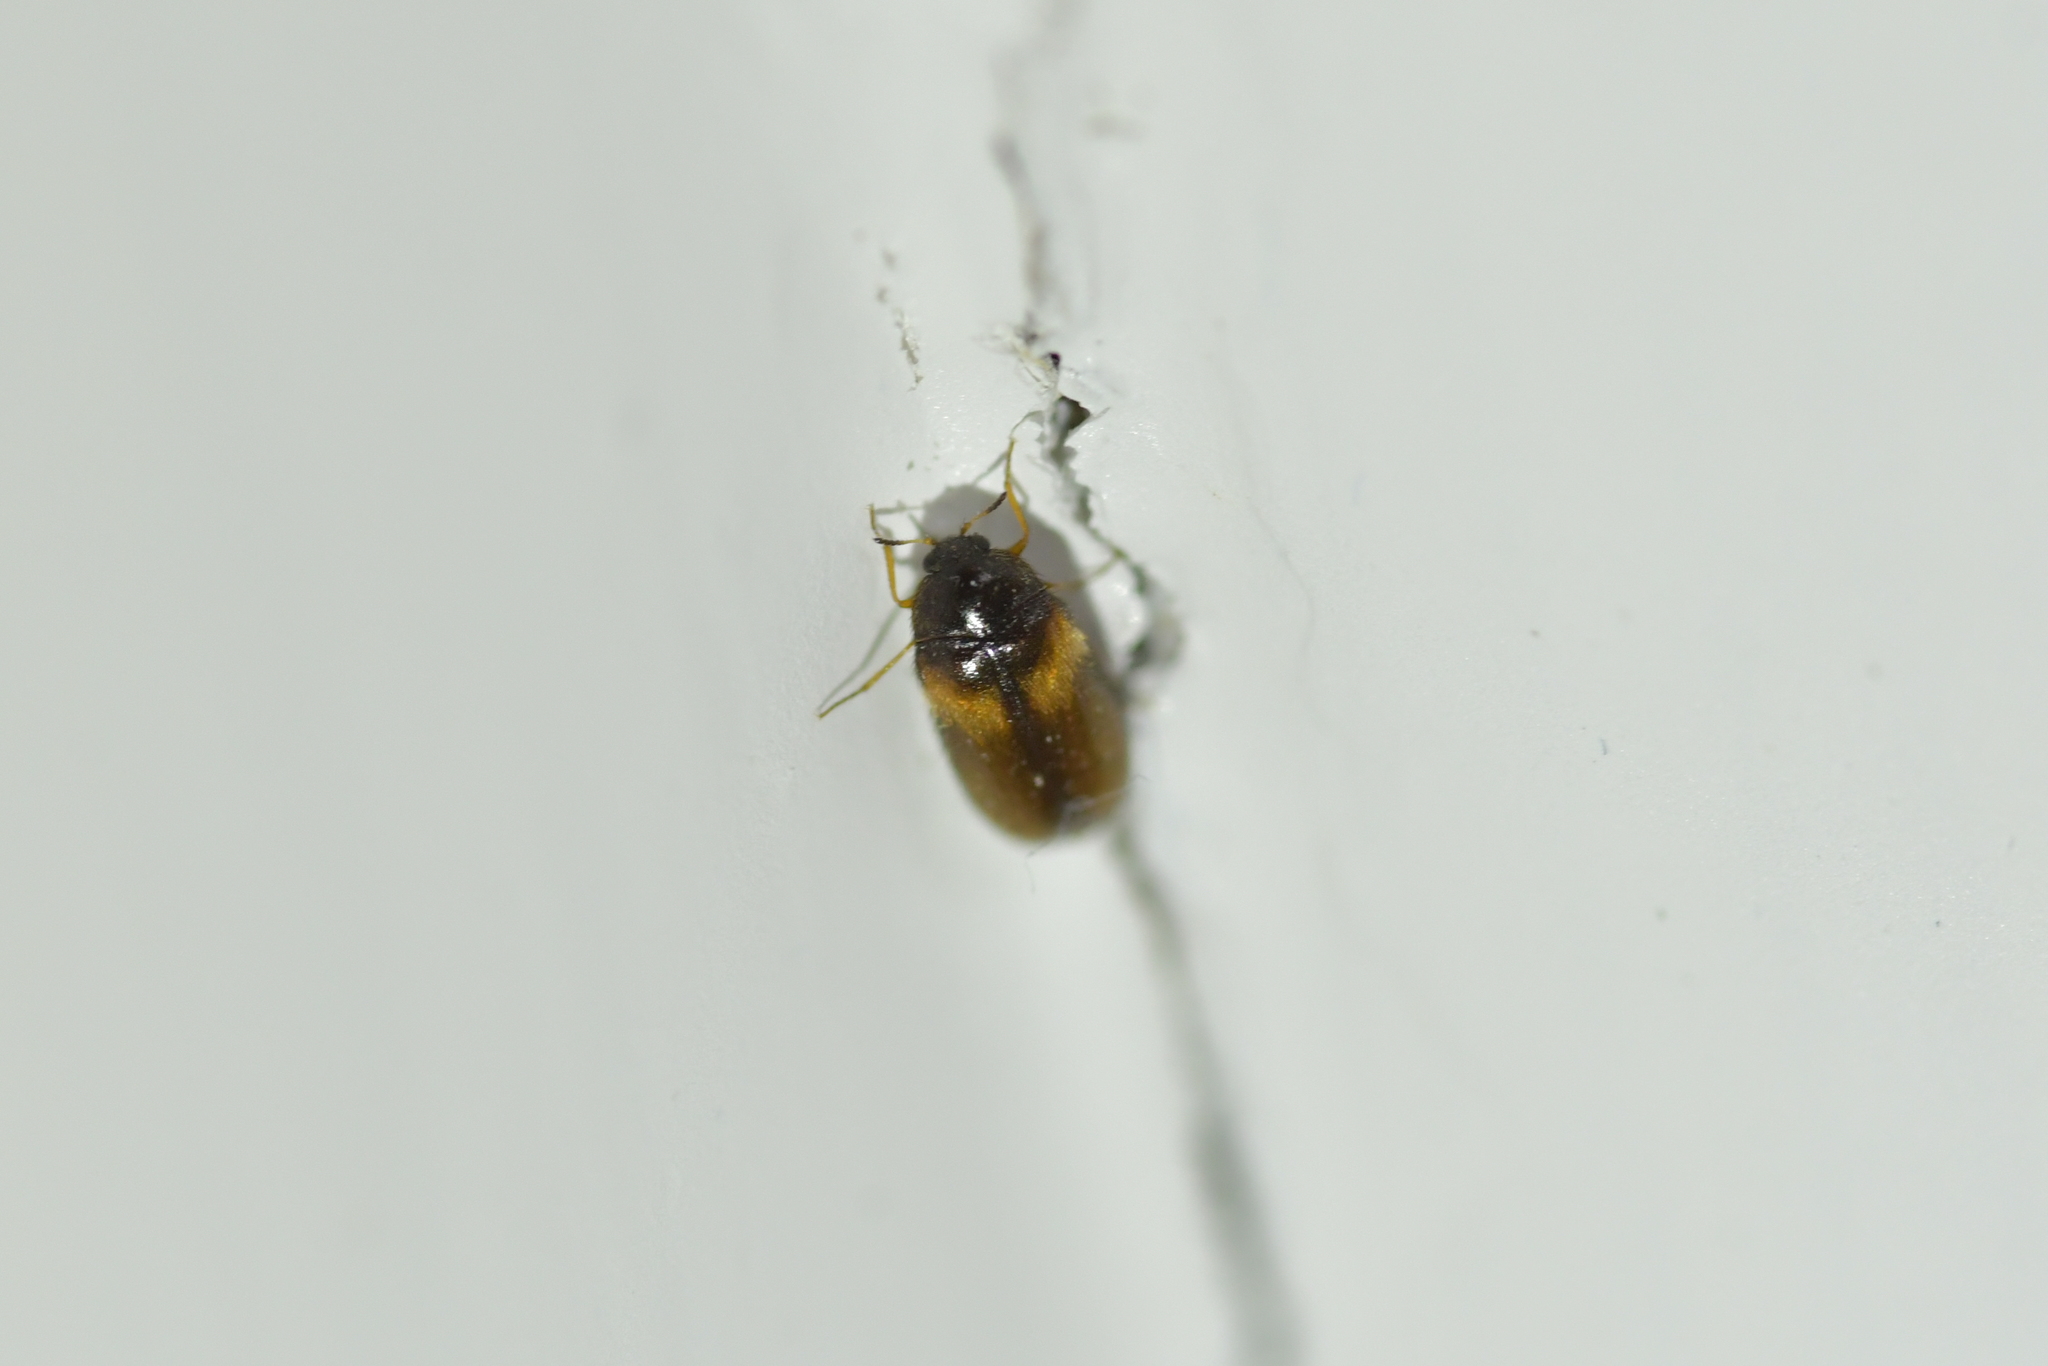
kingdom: Animalia
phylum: Arthropoda
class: Insecta
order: Coleoptera
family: Dermestidae
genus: Reesa
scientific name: Reesa vespulae
